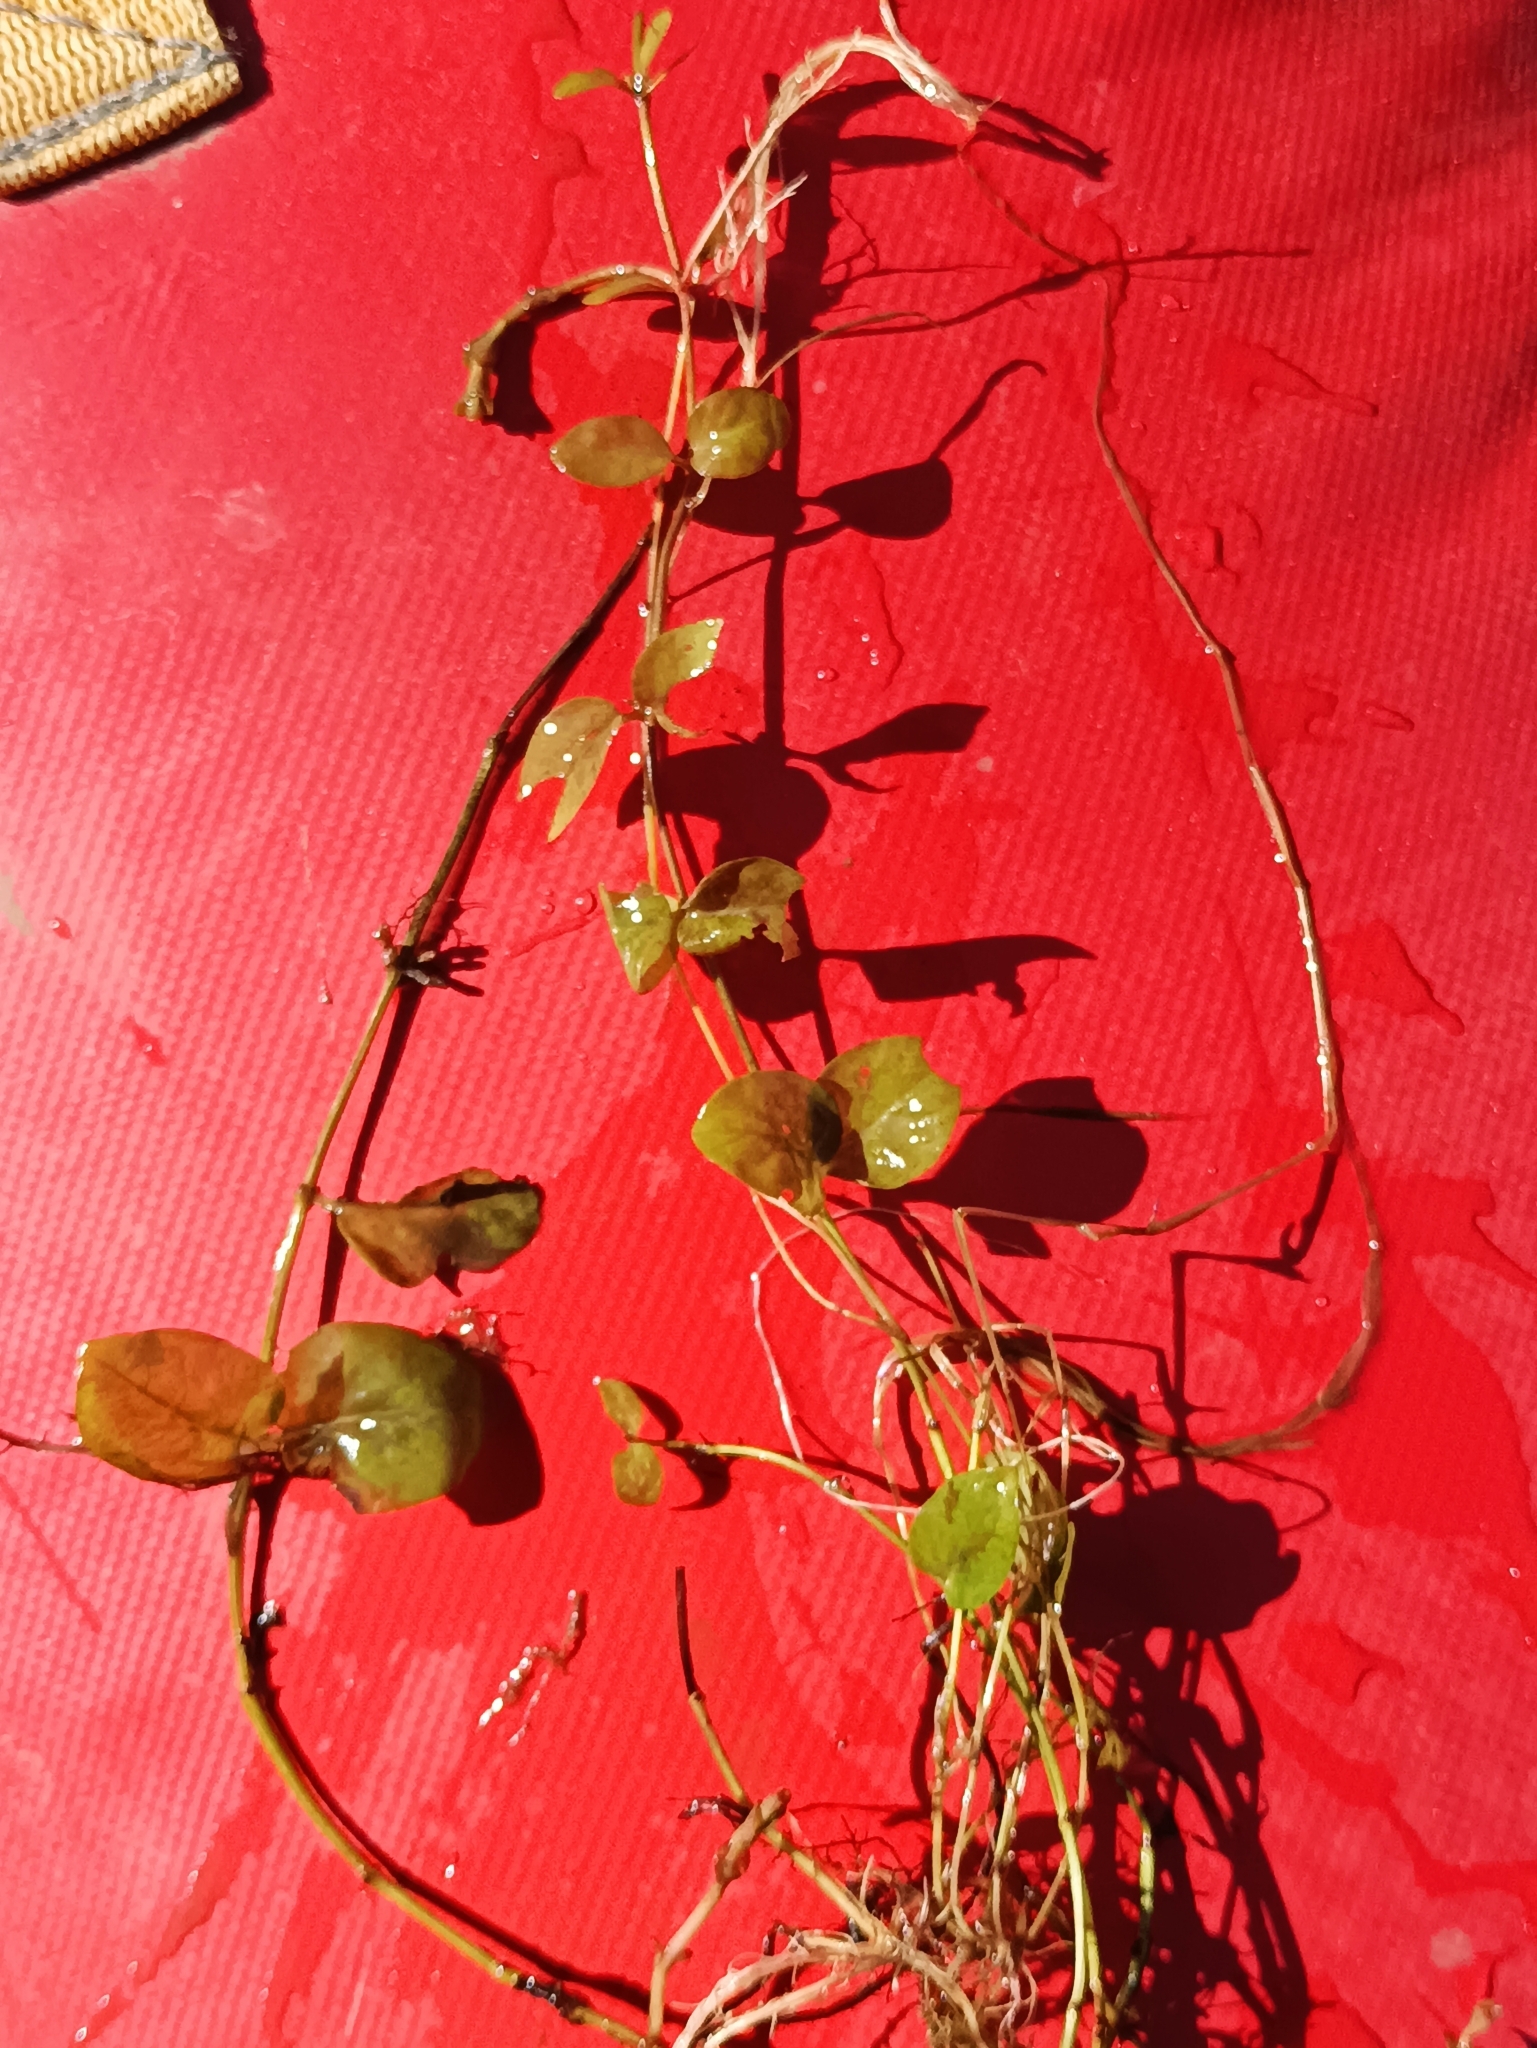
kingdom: Plantae
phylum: Tracheophyta
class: Magnoliopsida
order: Ericales
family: Primulaceae
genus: Lysimachia
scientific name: Lysimachia nummularia
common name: Moneywort
